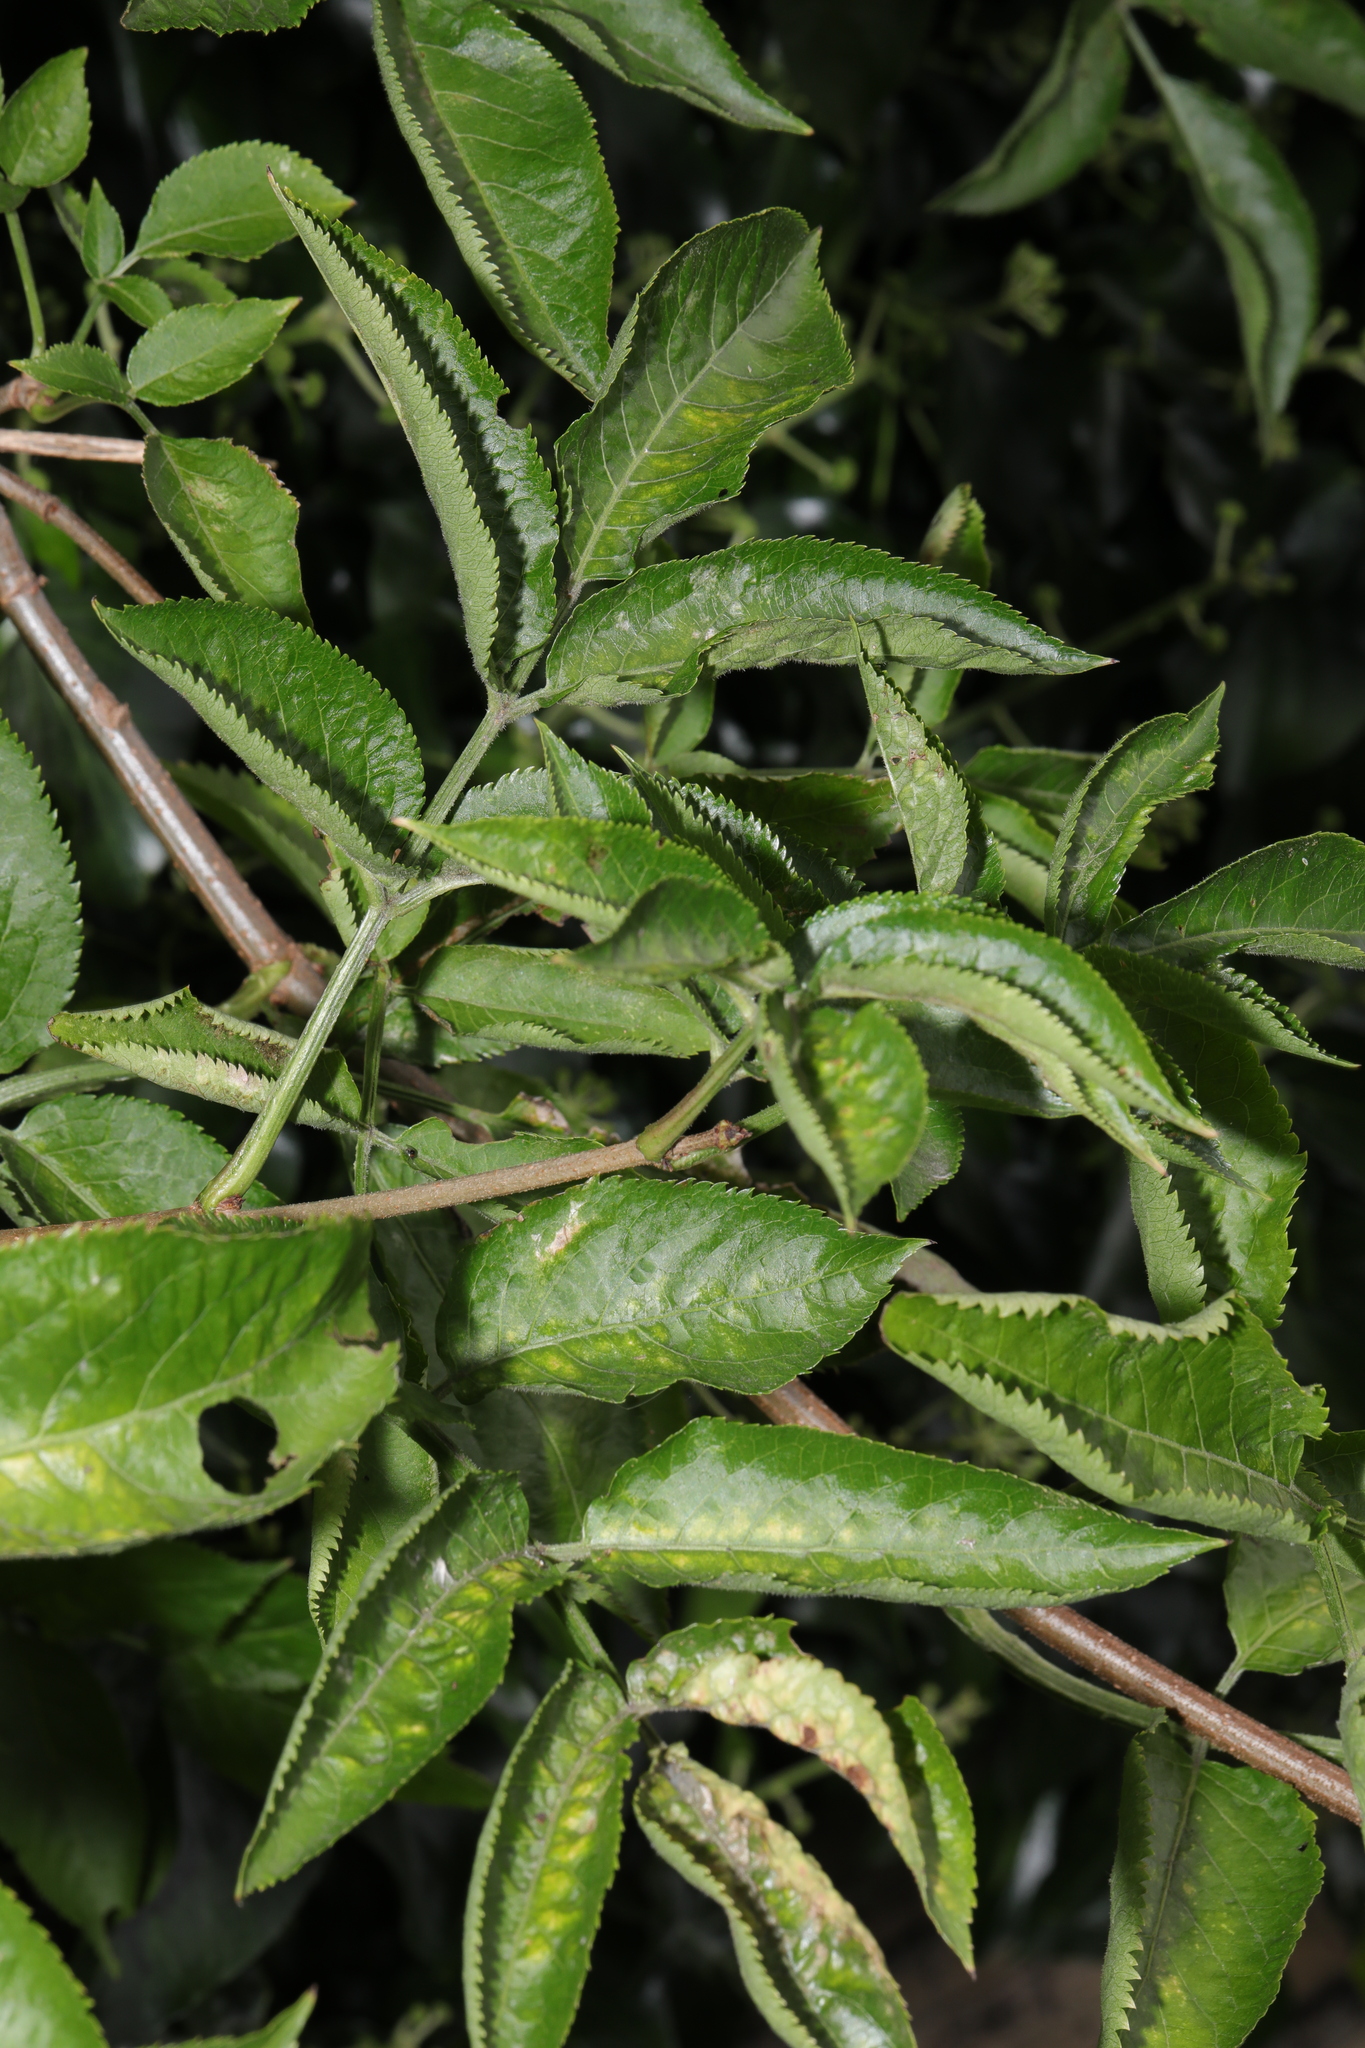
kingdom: Plantae
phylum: Tracheophyta
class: Magnoliopsida
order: Dipsacales
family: Viburnaceae
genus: Sambucus
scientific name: Sambucus nigra
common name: Elder
